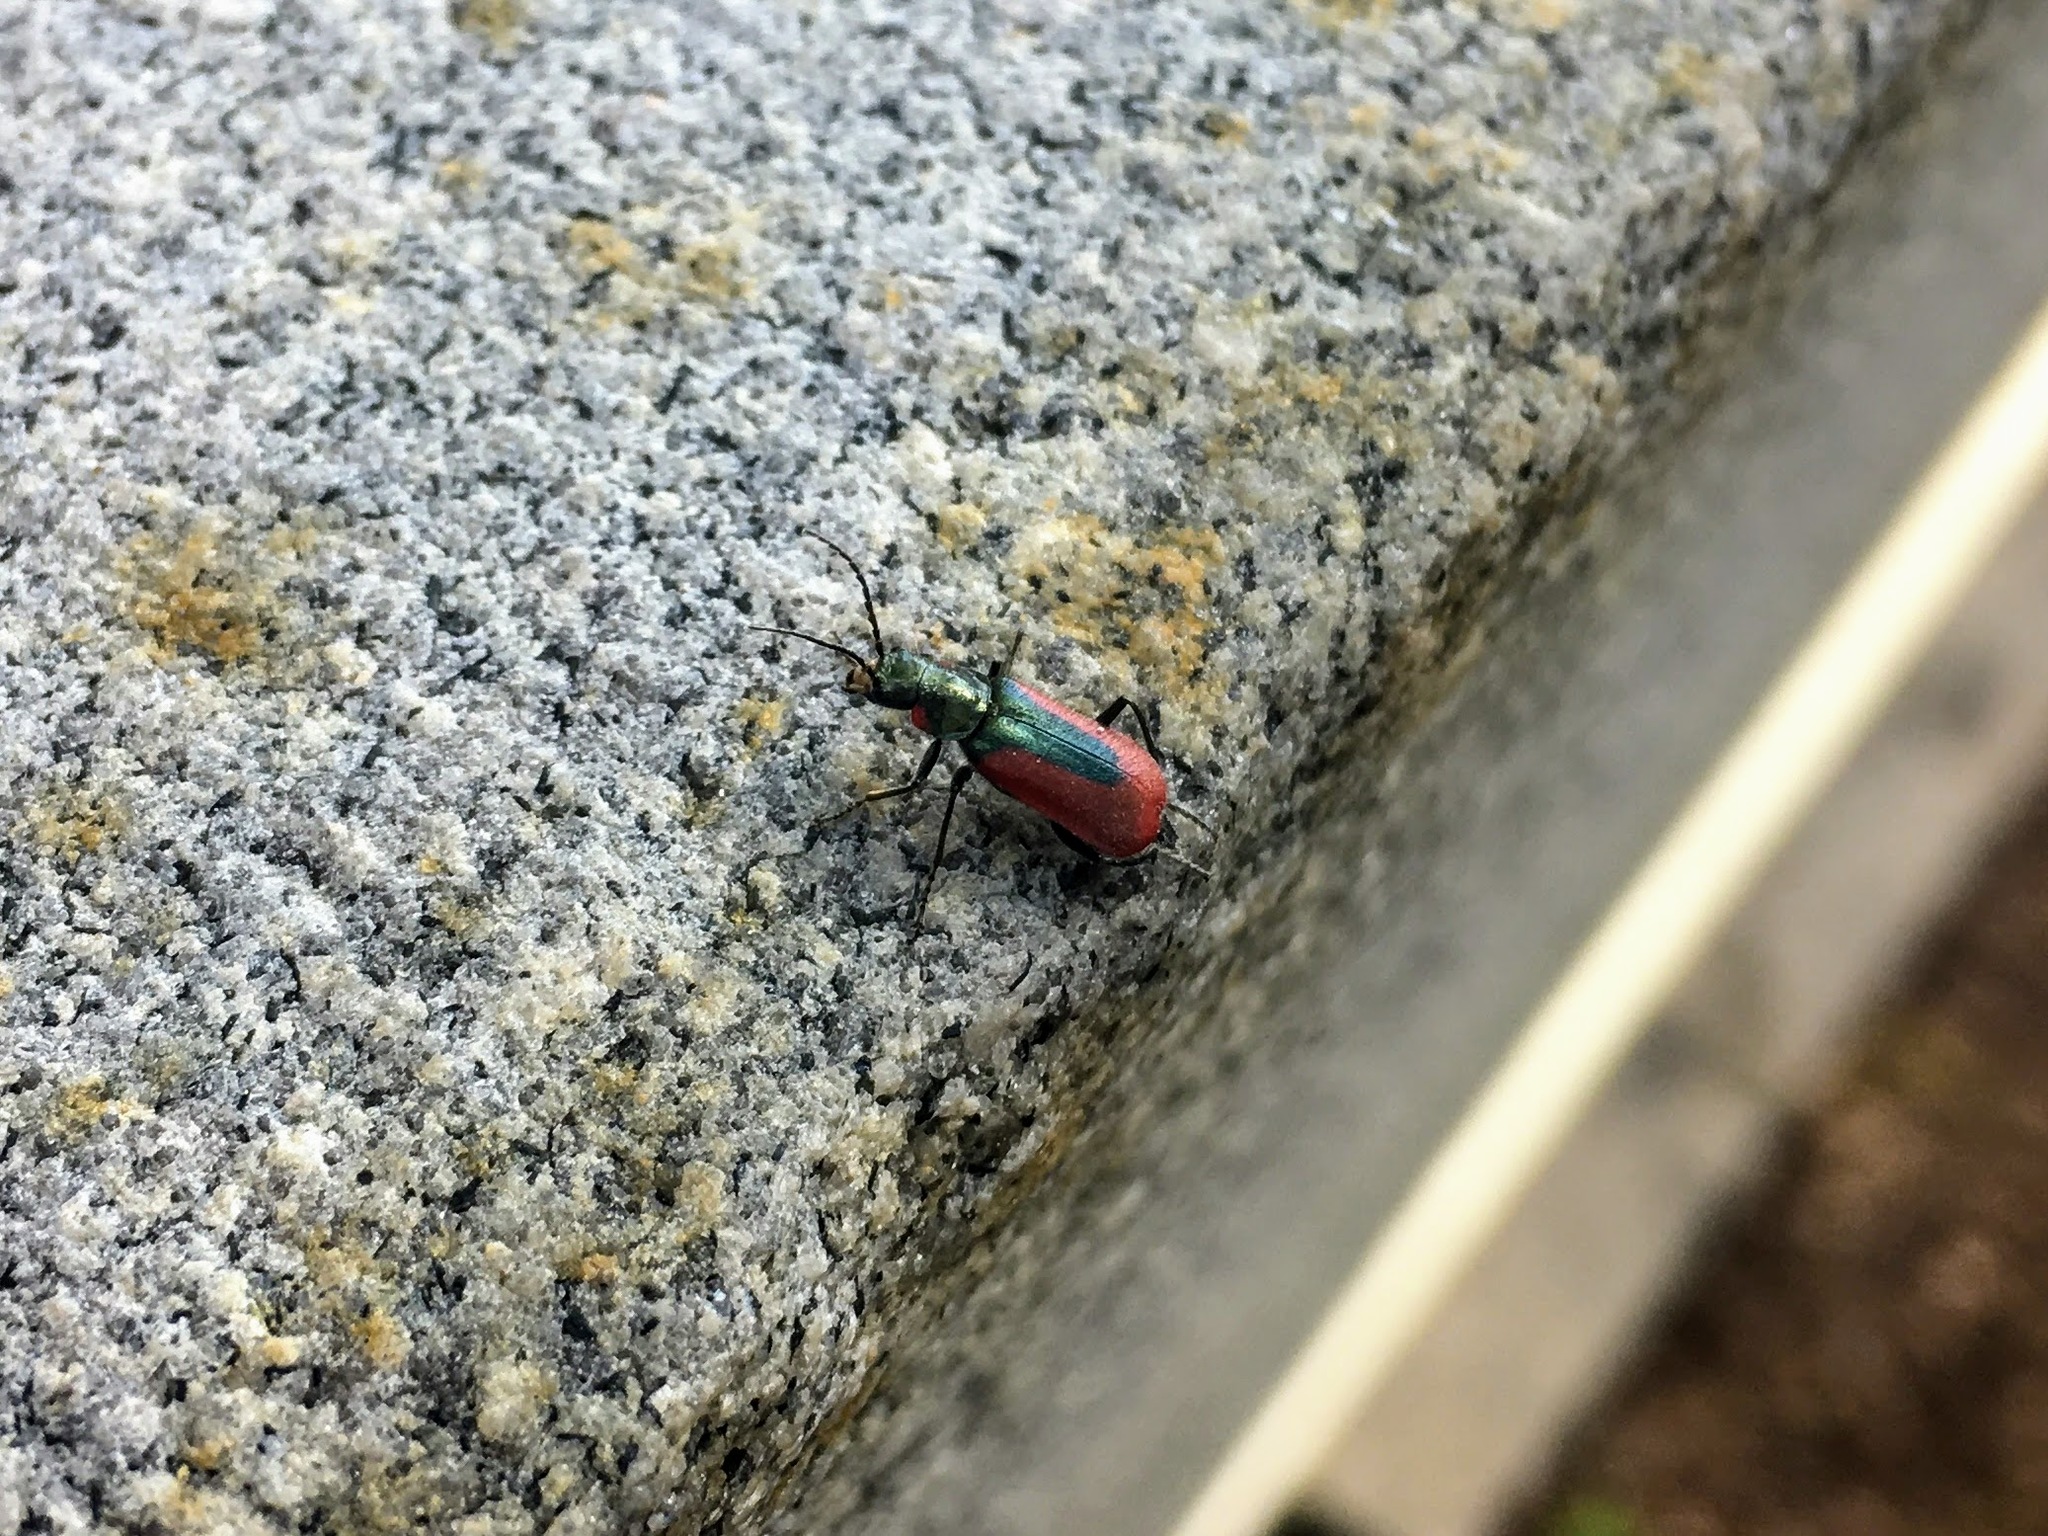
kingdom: Animalia
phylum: Arthropoda
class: Insecta
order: Coleoptera
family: Melyridae
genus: Malachius
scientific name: Malachius aeneus
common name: Scarlet malachite beetle
